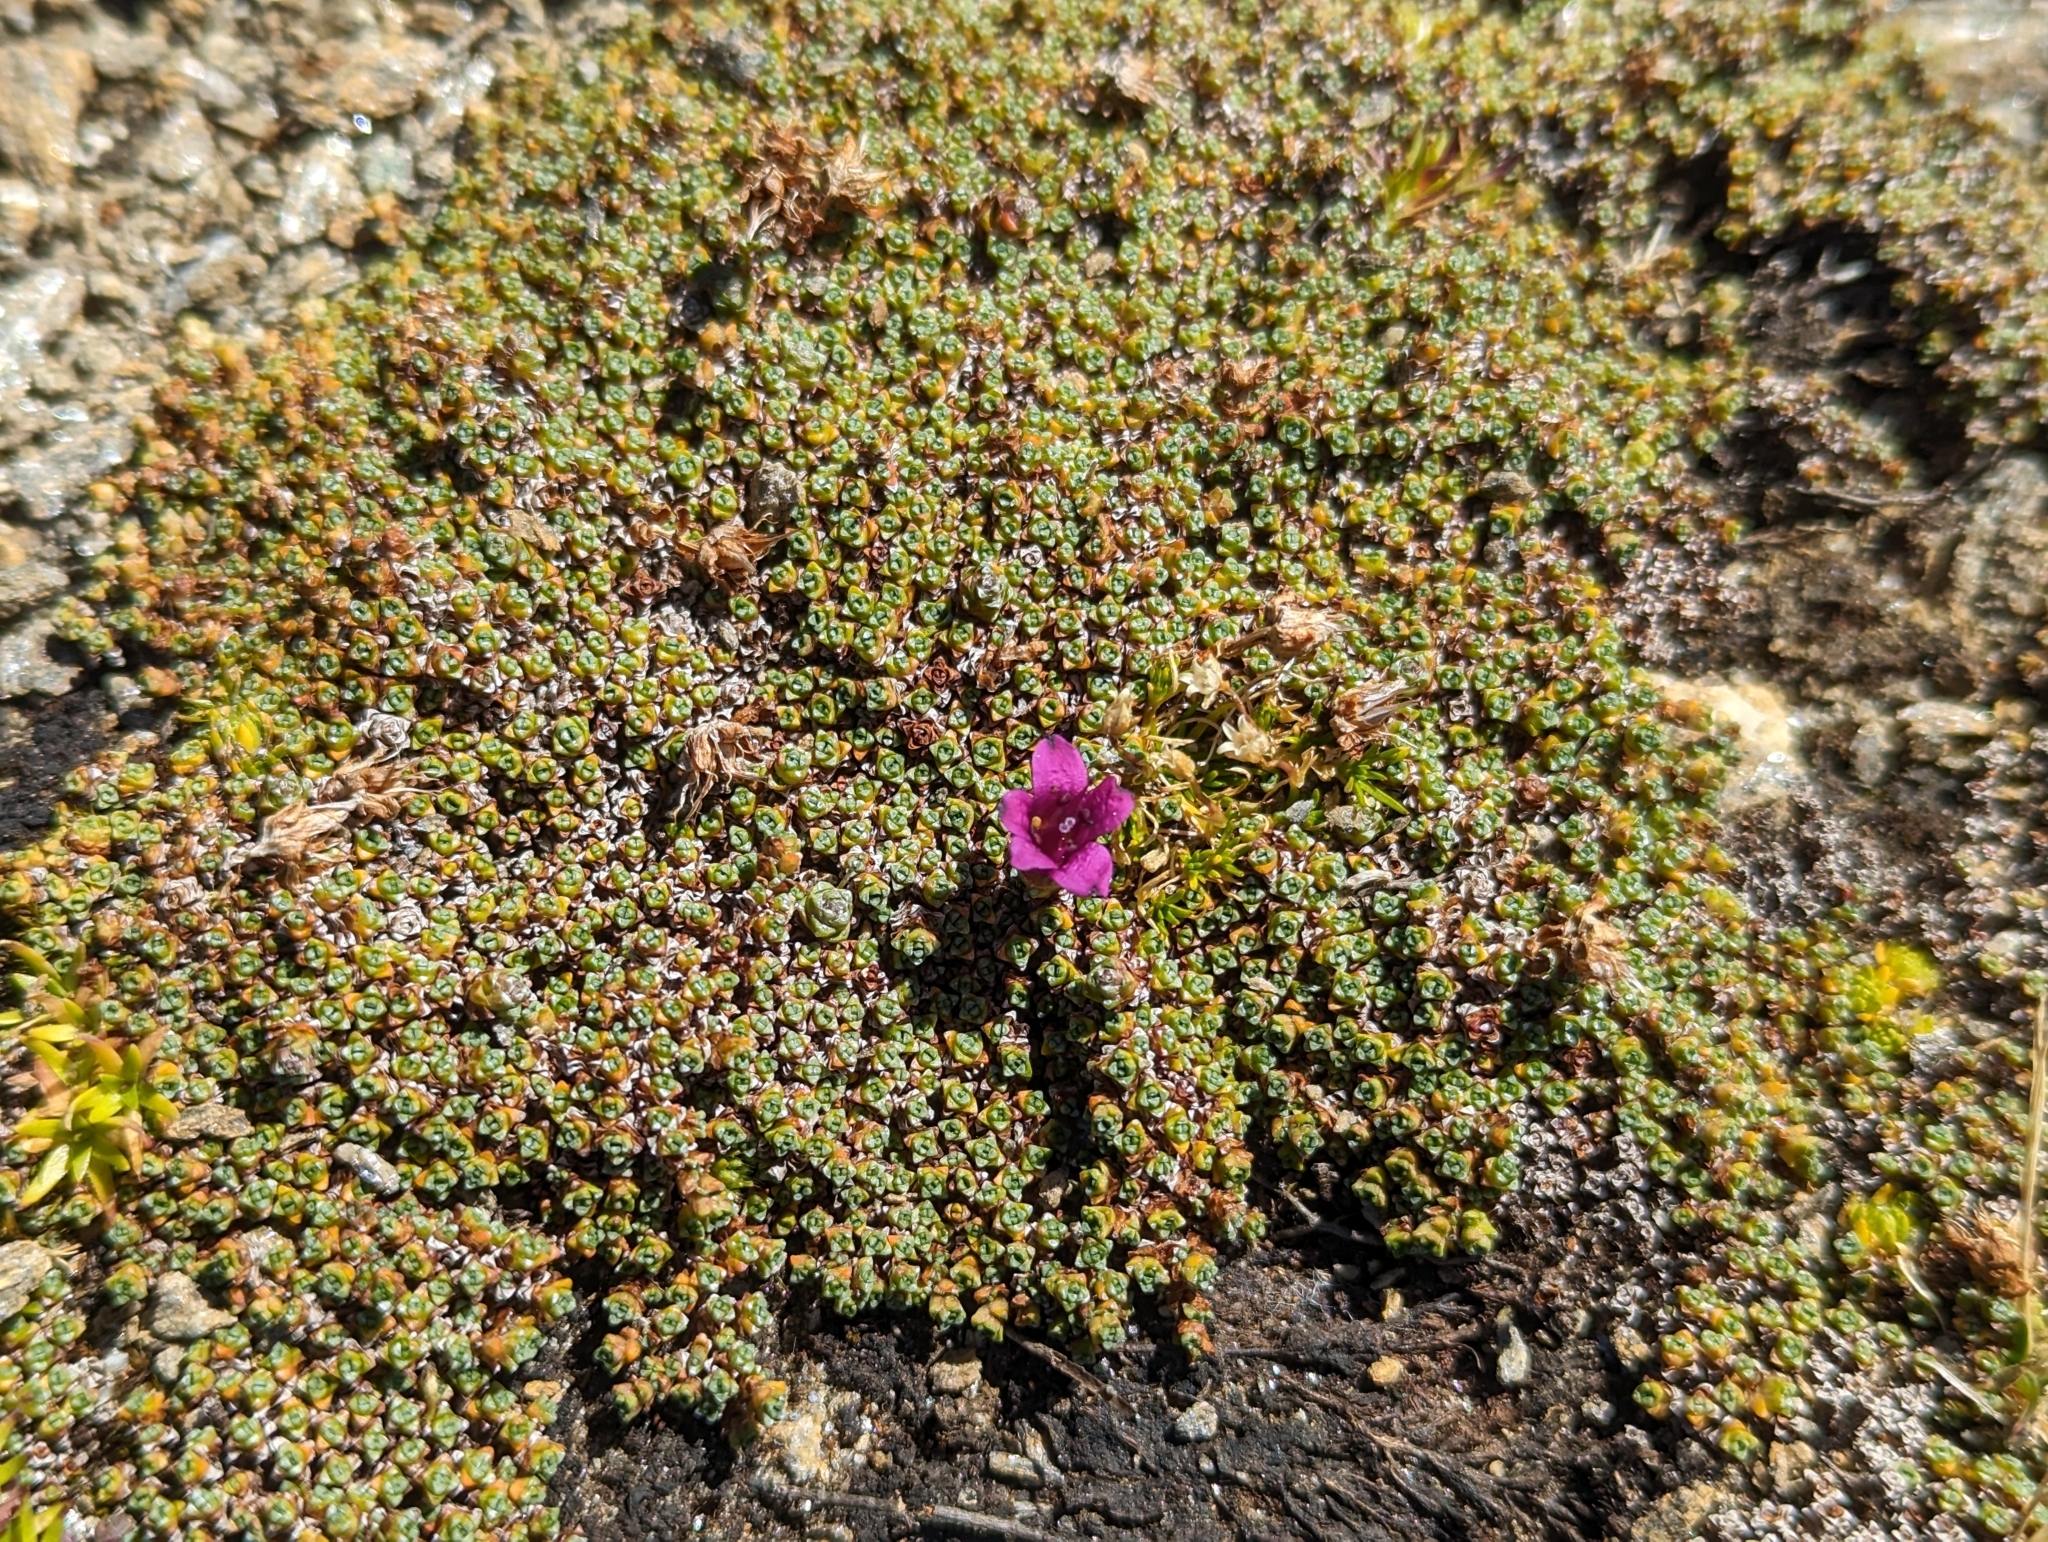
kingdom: Plantae
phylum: Tracheophyta
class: Magnoliopsida
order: Saxifragales
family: Saxifragaceae
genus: Saxifraga
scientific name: Saxifraga oppositifolia
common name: Purple saxifrage
